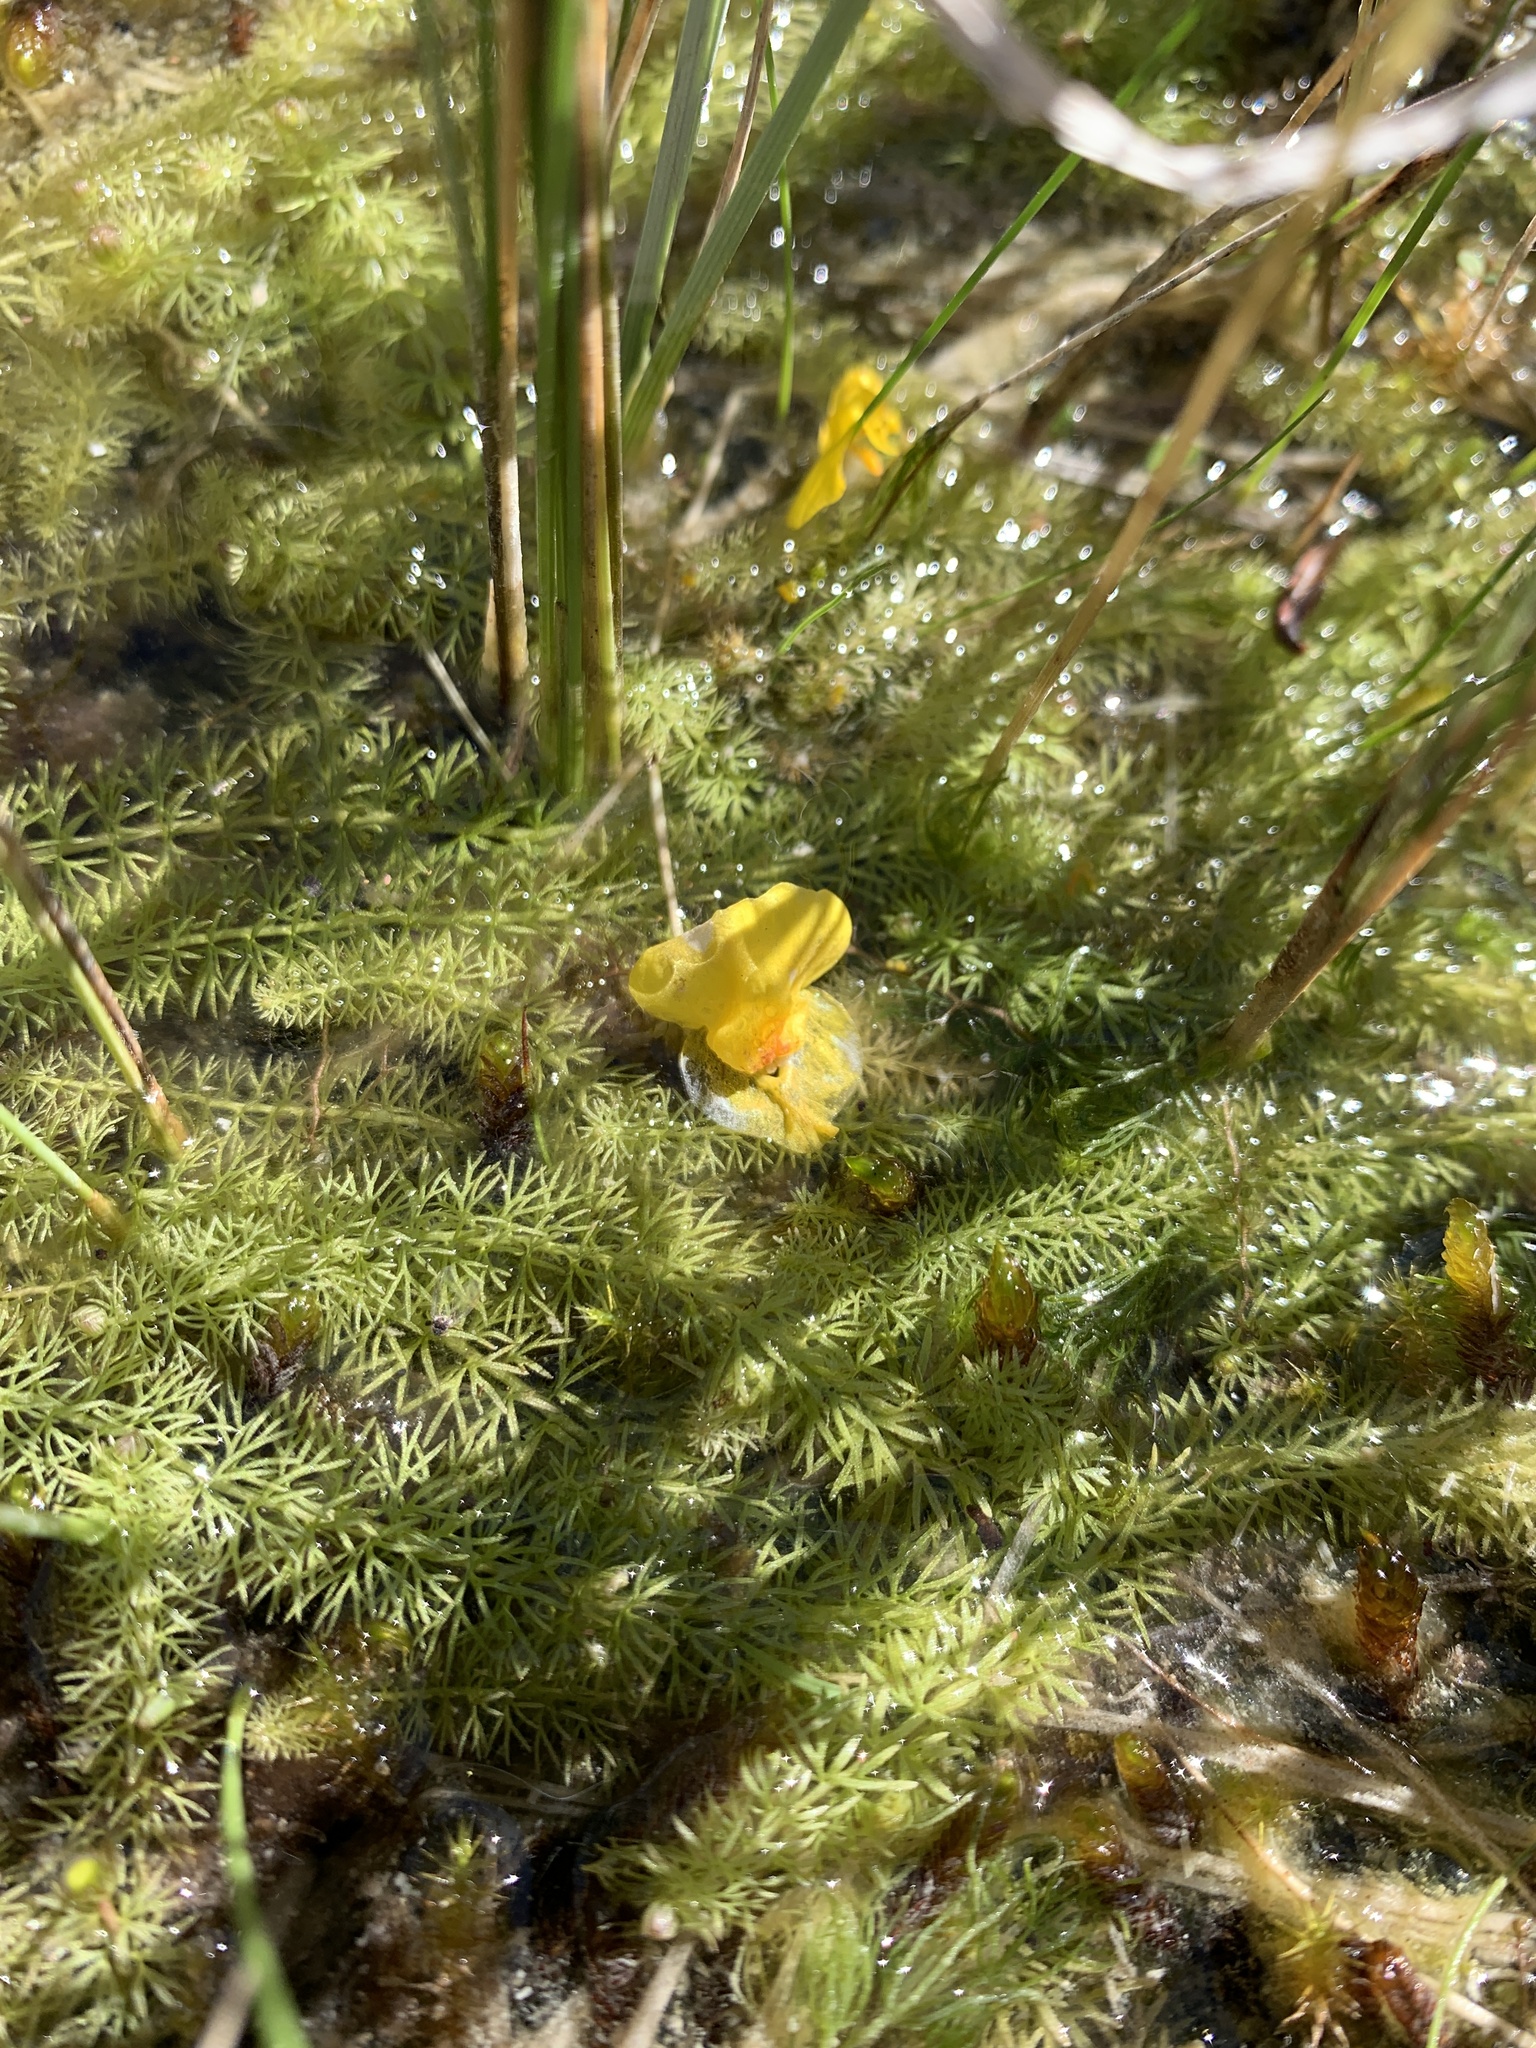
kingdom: Plantae
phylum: Tracheophyta
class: Magnoliopsida
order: Lamiales
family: Lentibulariaceae
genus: Utricularia
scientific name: Utricularia intermedia
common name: Intermediate bladderwort
